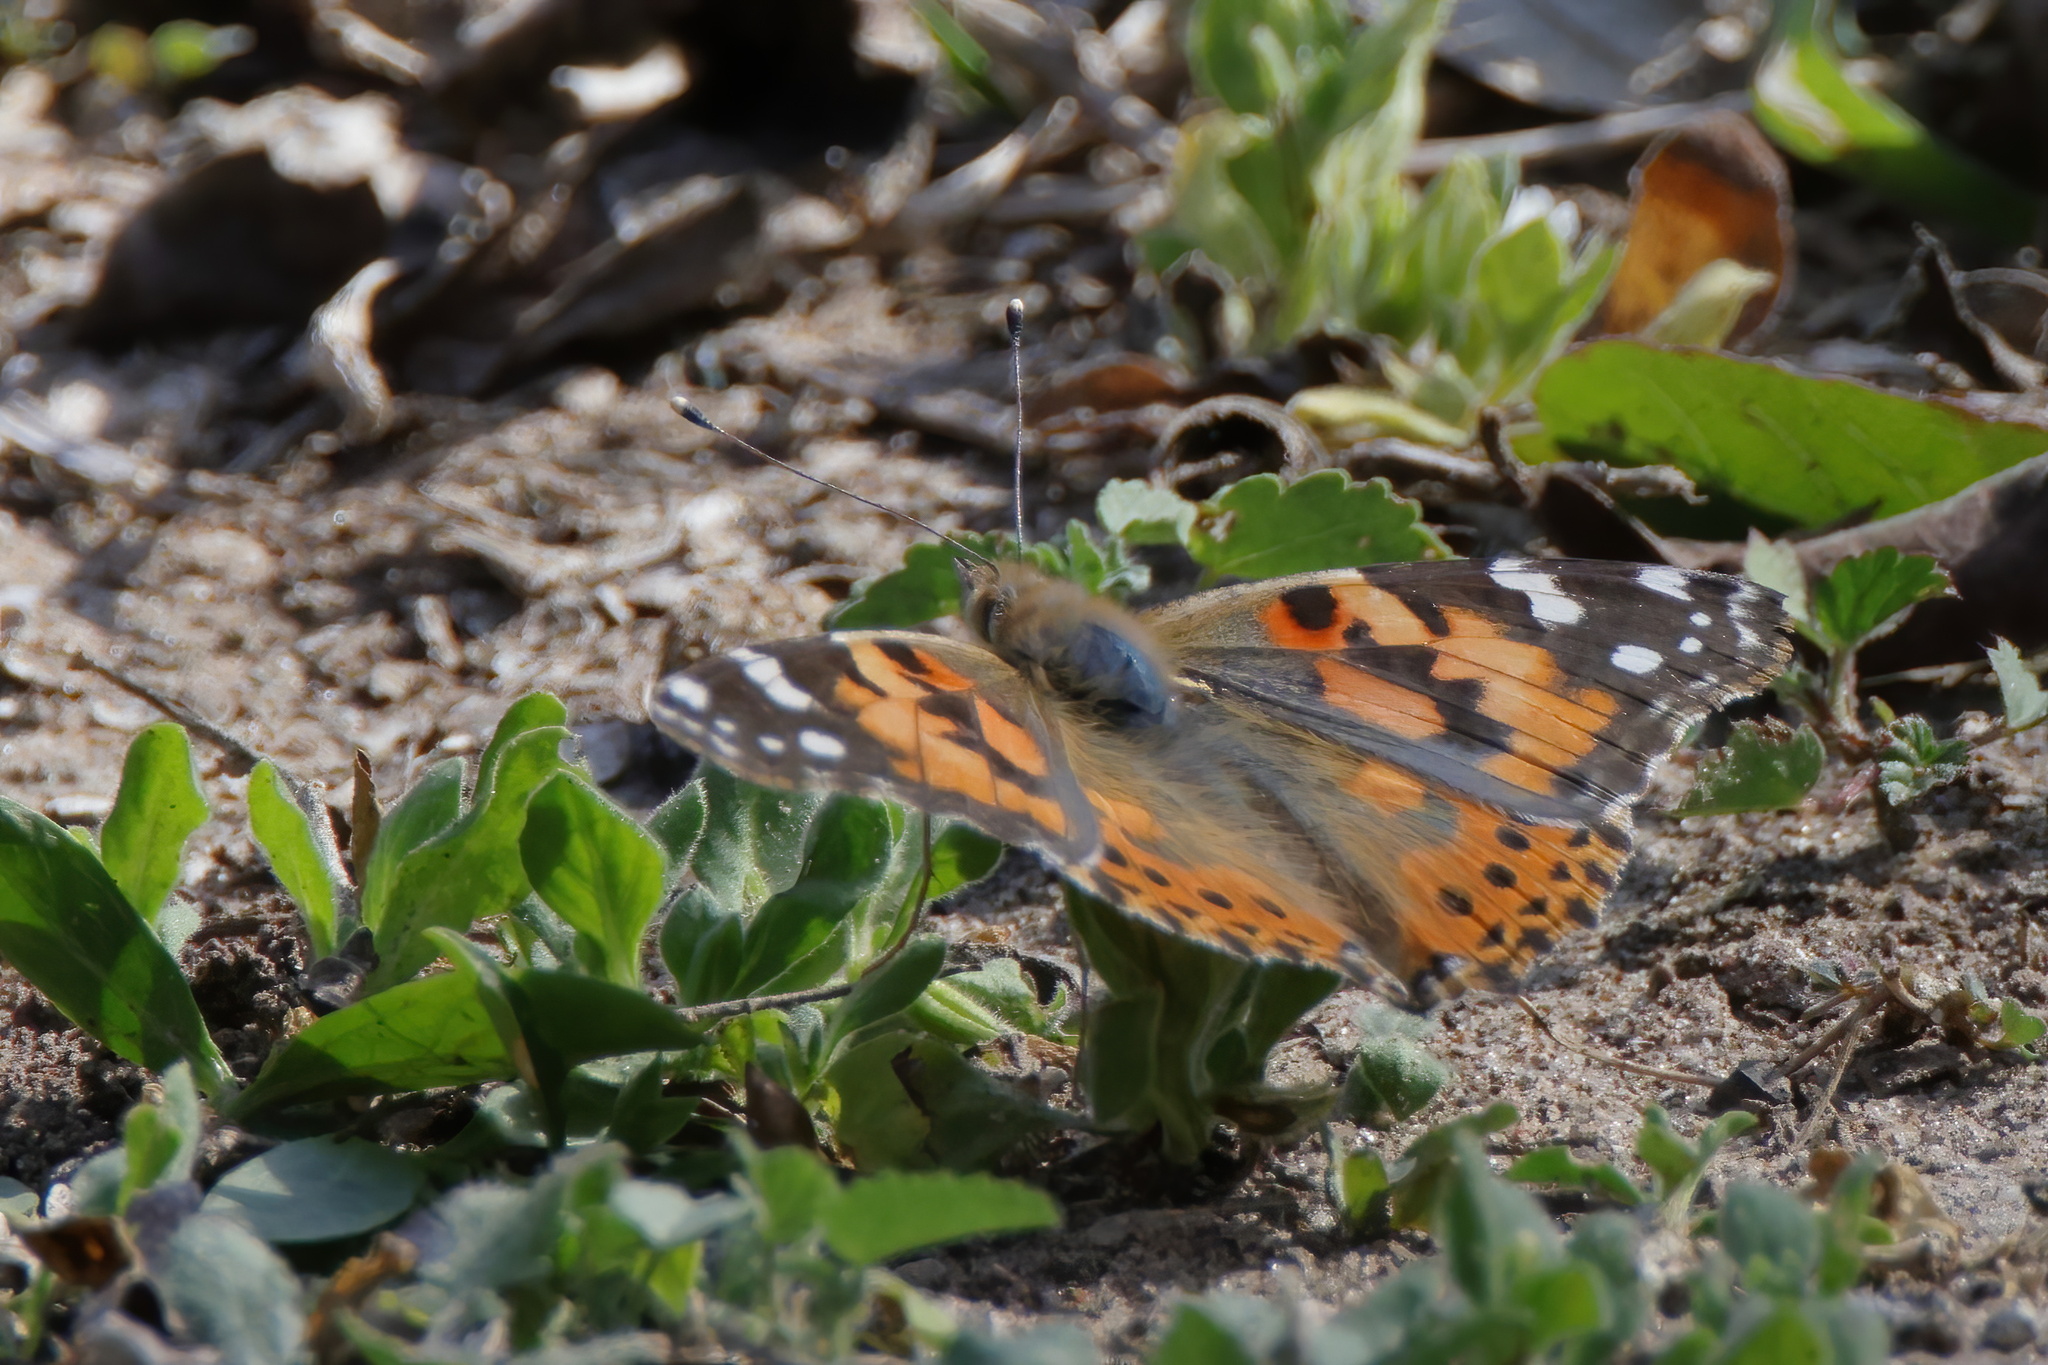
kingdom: Animalia
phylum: Arthropoda
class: Insecta
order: Lepidoptera
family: Nymphalidae
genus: Vanessa
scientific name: Vanessa cardui
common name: Painted lady
